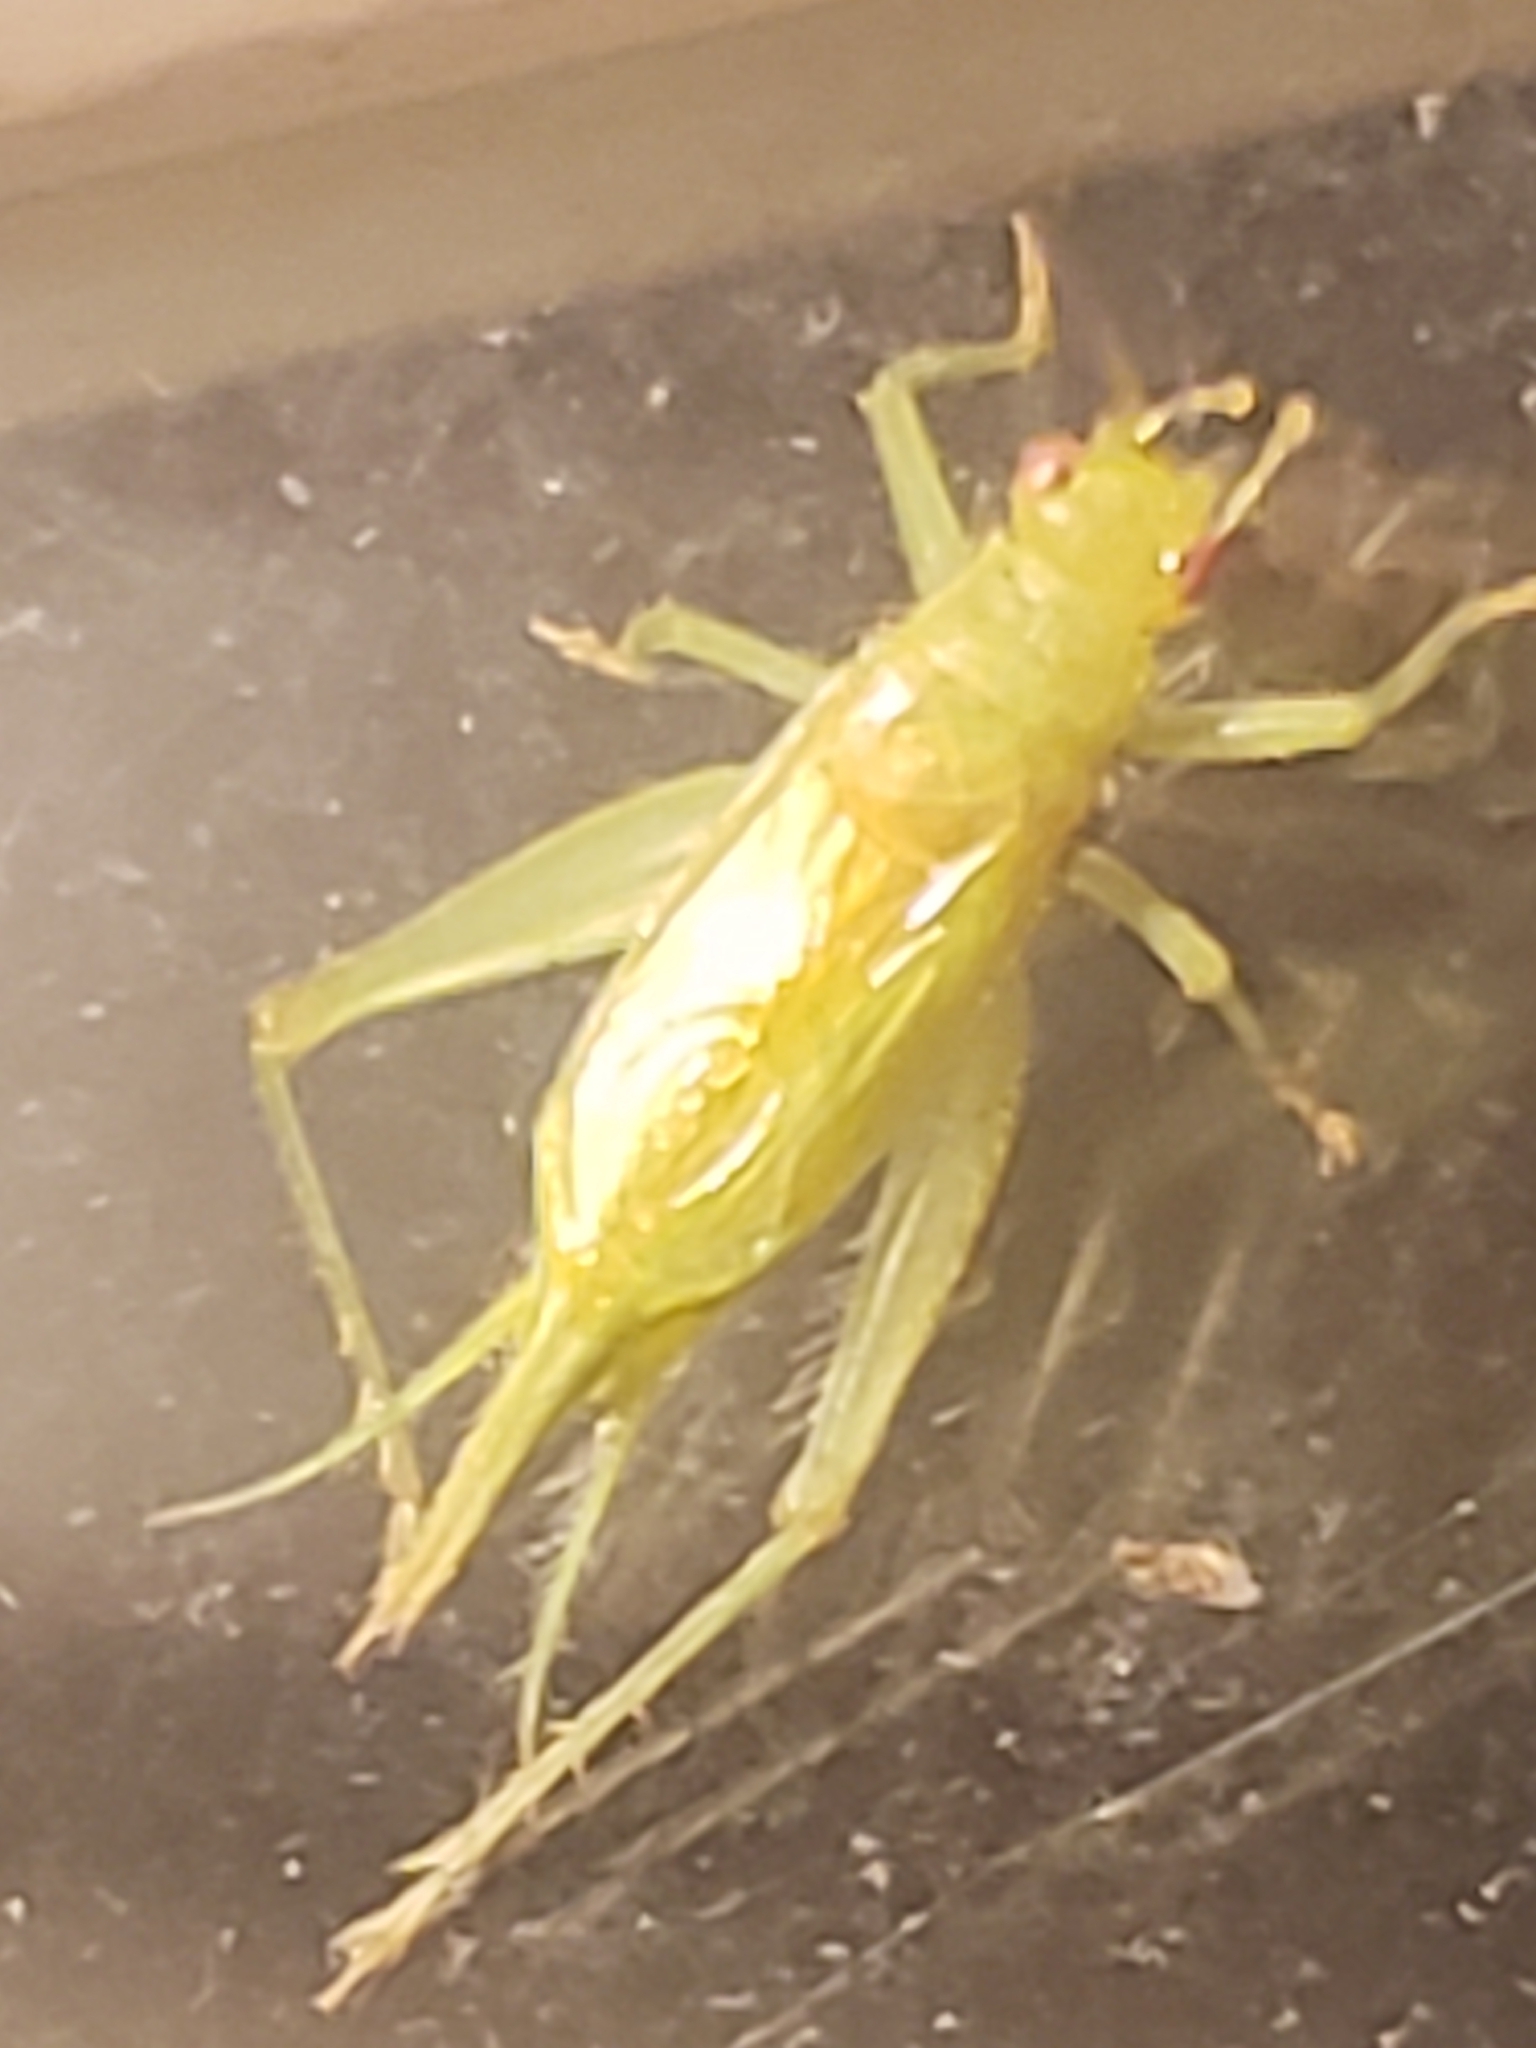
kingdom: Animalia
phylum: Arthropoda
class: Insecta
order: Orthoptera
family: Trigonidiidae
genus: Cyrtoxipha
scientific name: Cyrtoxipha columbiana
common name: Columbian trig
